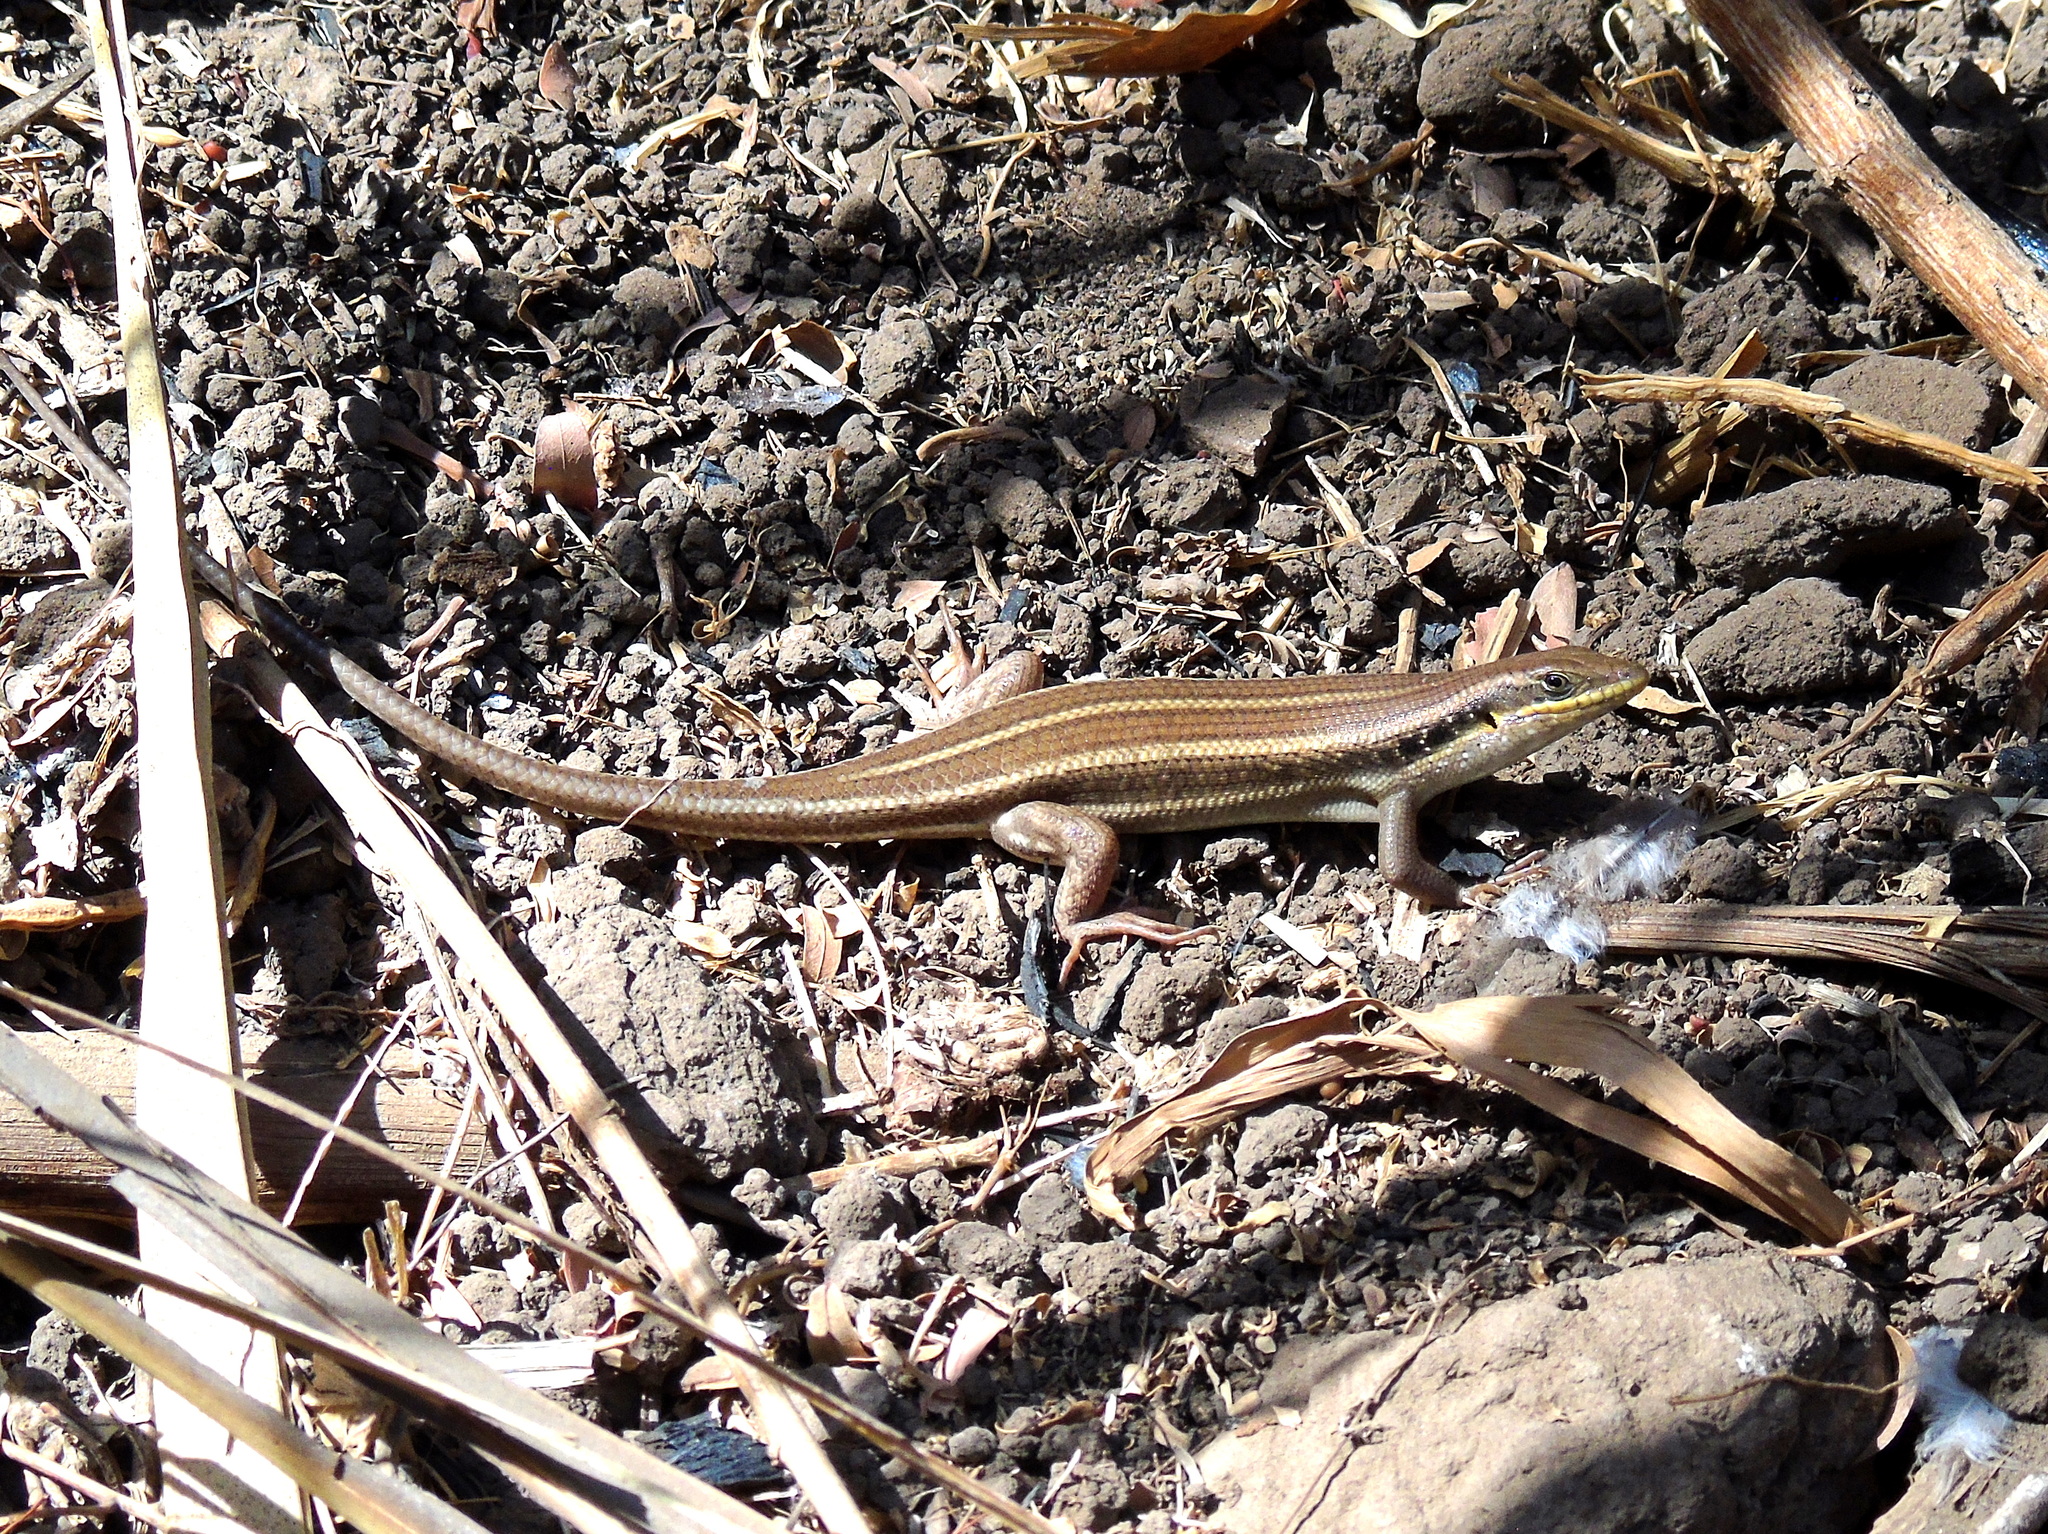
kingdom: Animalia
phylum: Chordata
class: Squamata
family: Scincidae
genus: Trachylepis
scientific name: Trachylepis quinquetaeniata
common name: African five-lined skink
